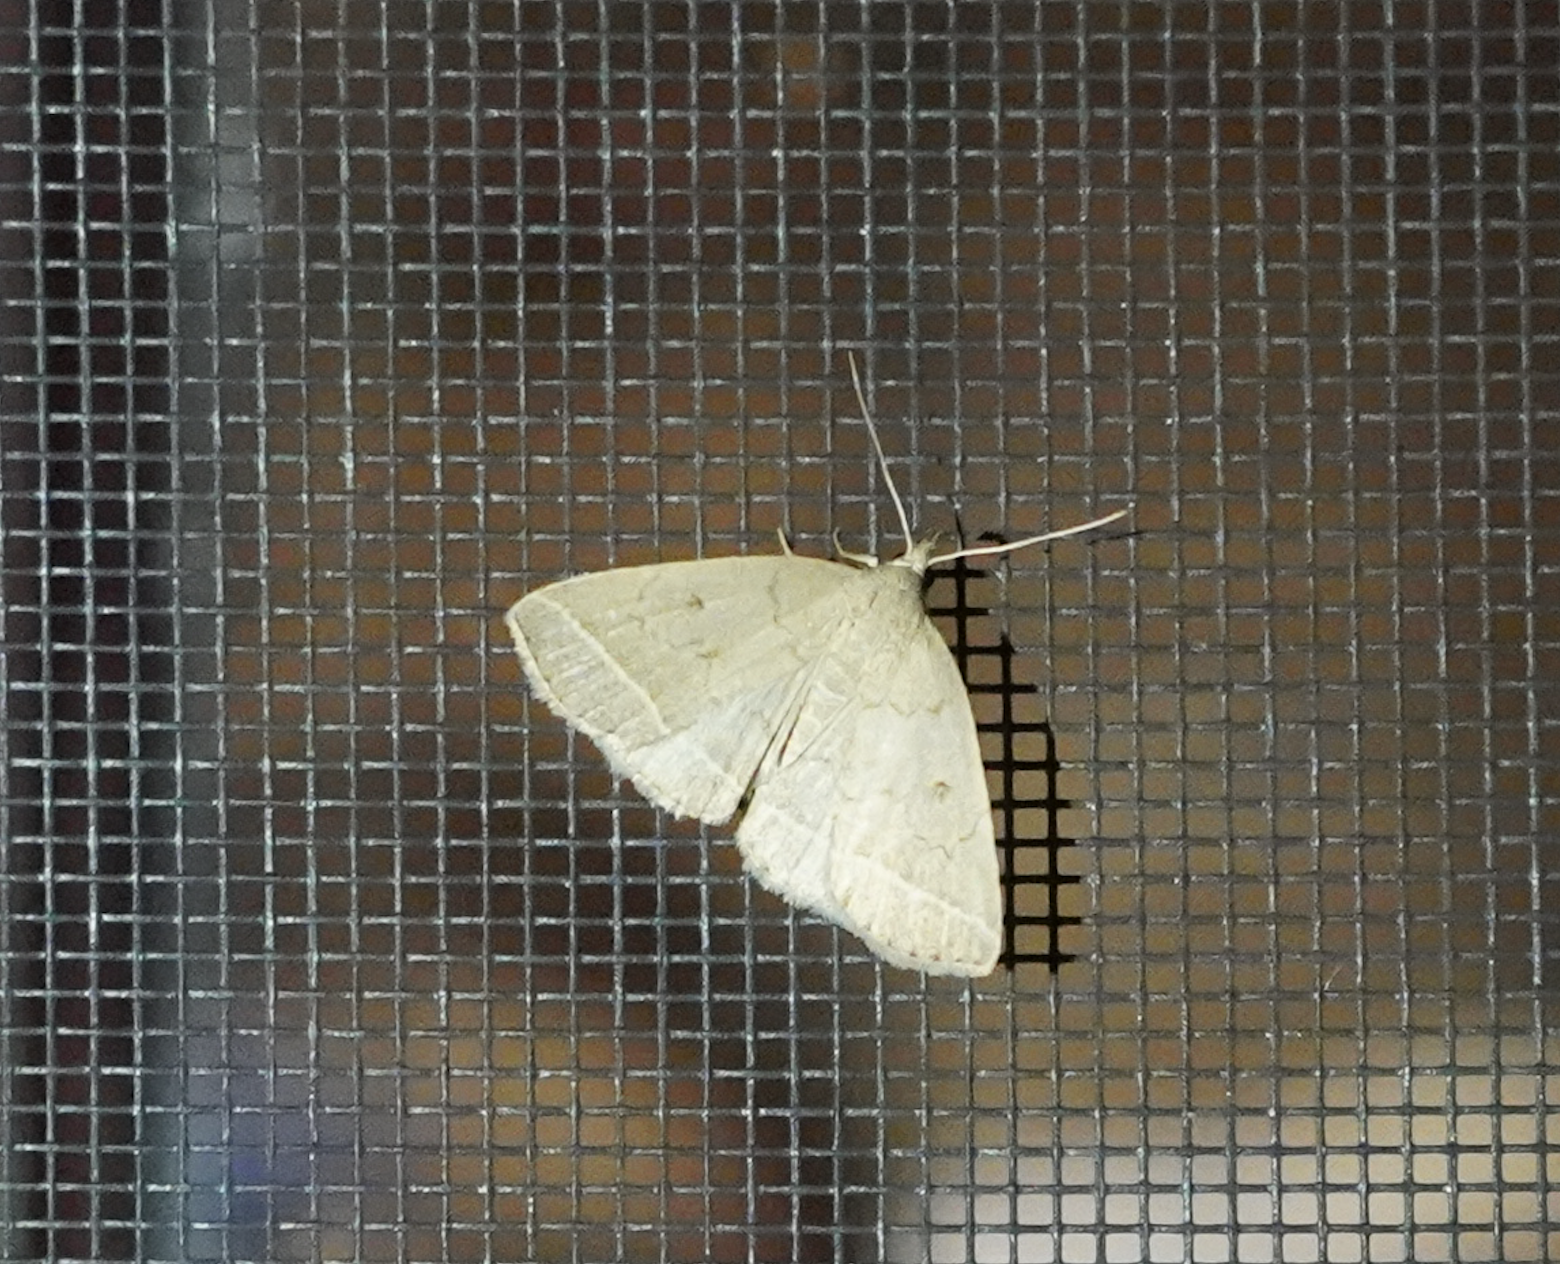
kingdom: Animalia
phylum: Arthropoda
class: Insecta
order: Lepidoptera
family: Erebidae
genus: Zanclognatha
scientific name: Zanclognatha marcidilinea
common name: Yellowish fan-foot
